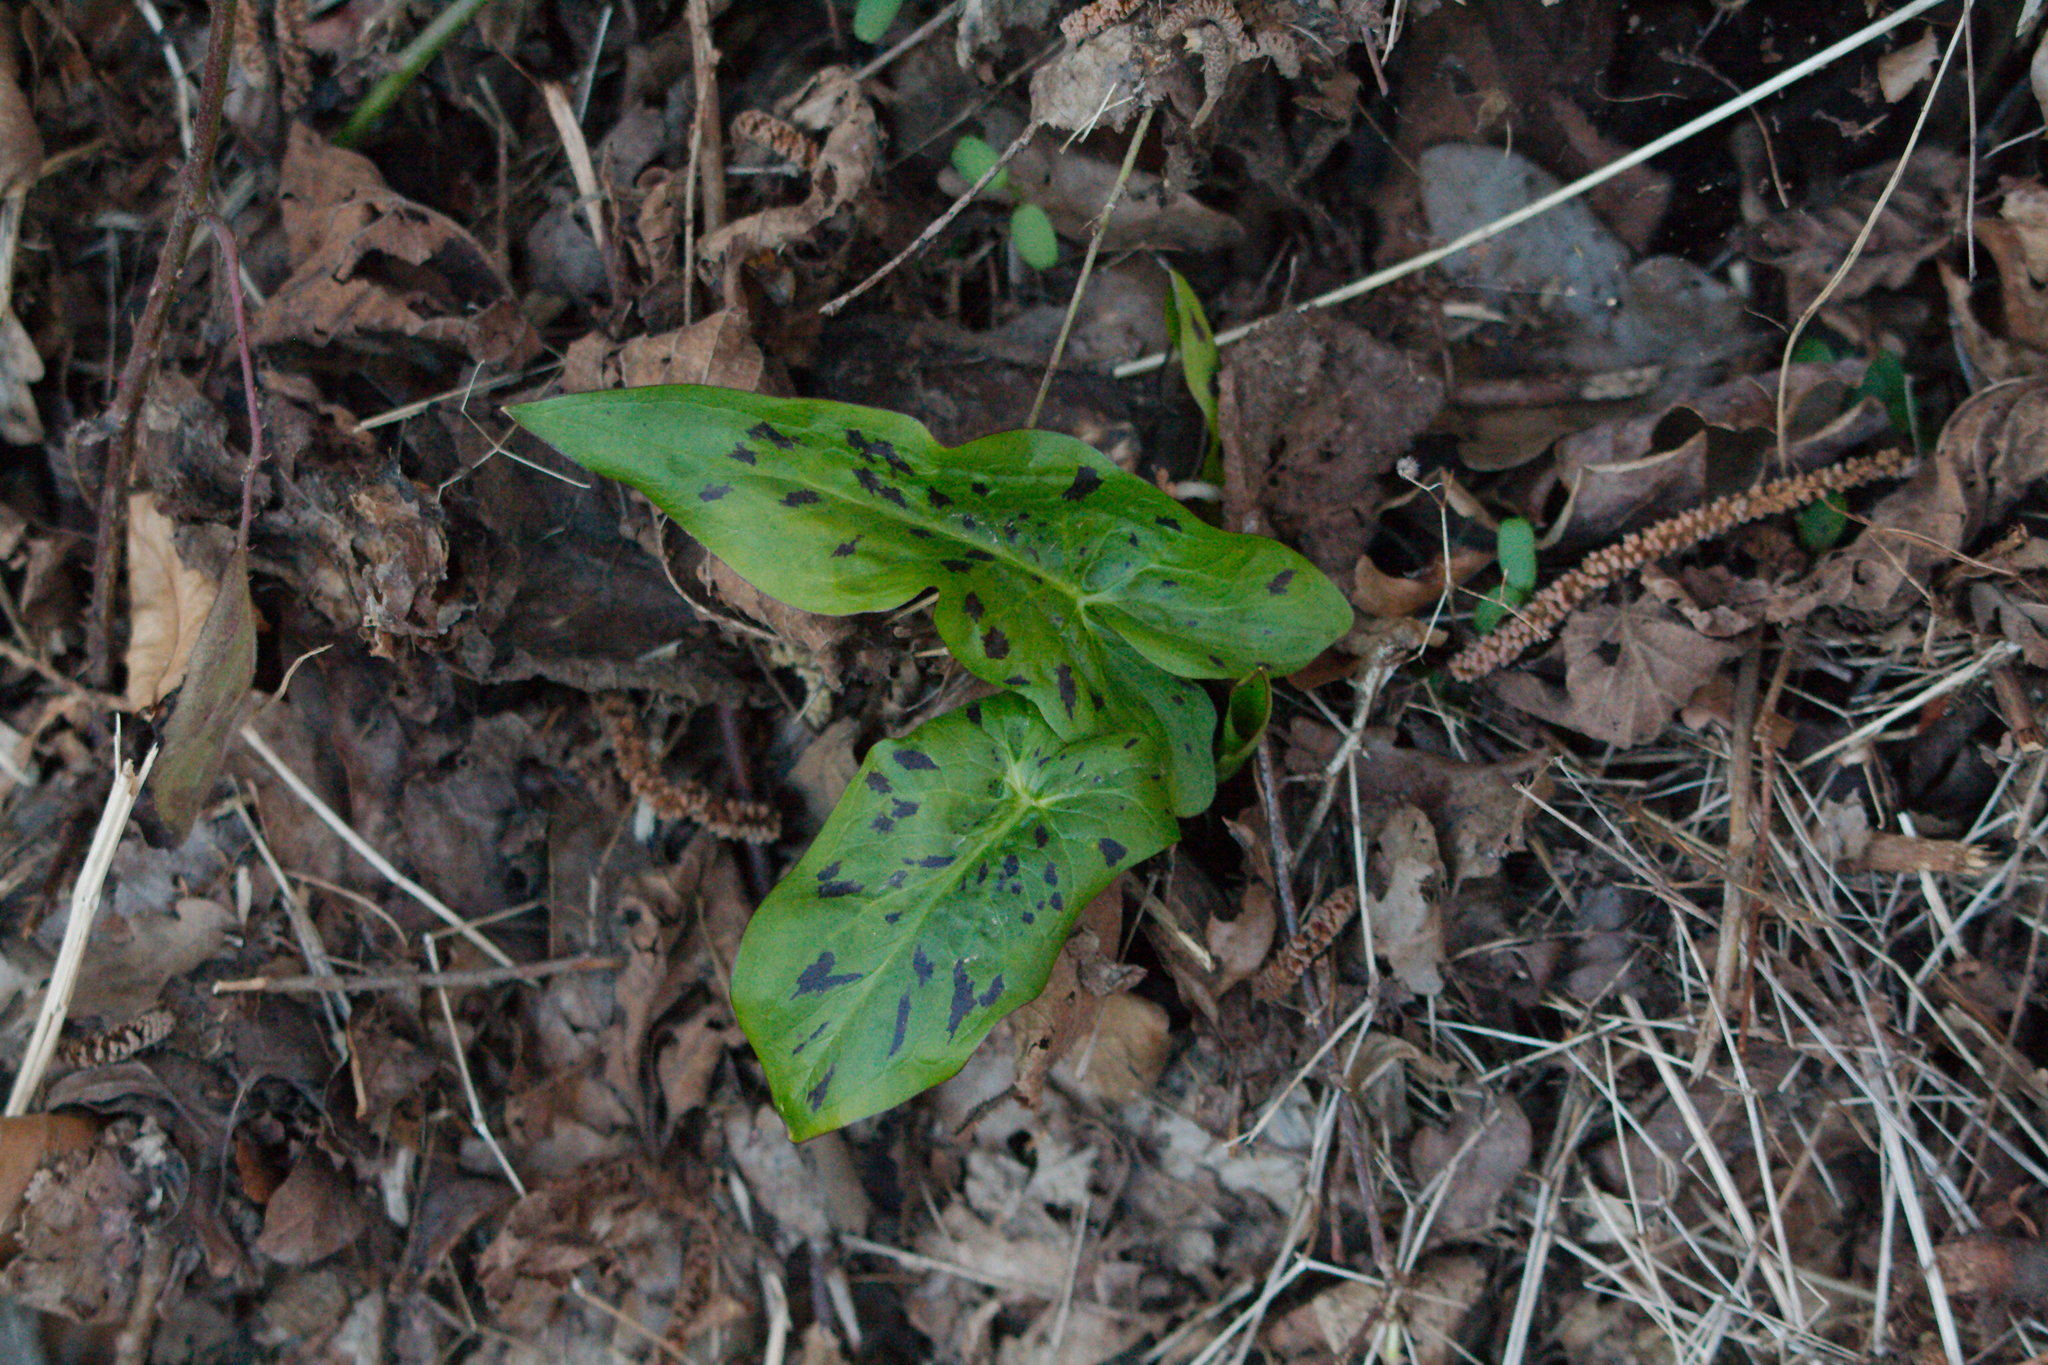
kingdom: Plantae
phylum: Tracheophyta
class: Liliopsida
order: Alismatales
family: Araceae
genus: Arum
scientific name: Arum maculatum
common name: Lords-and-ladies
